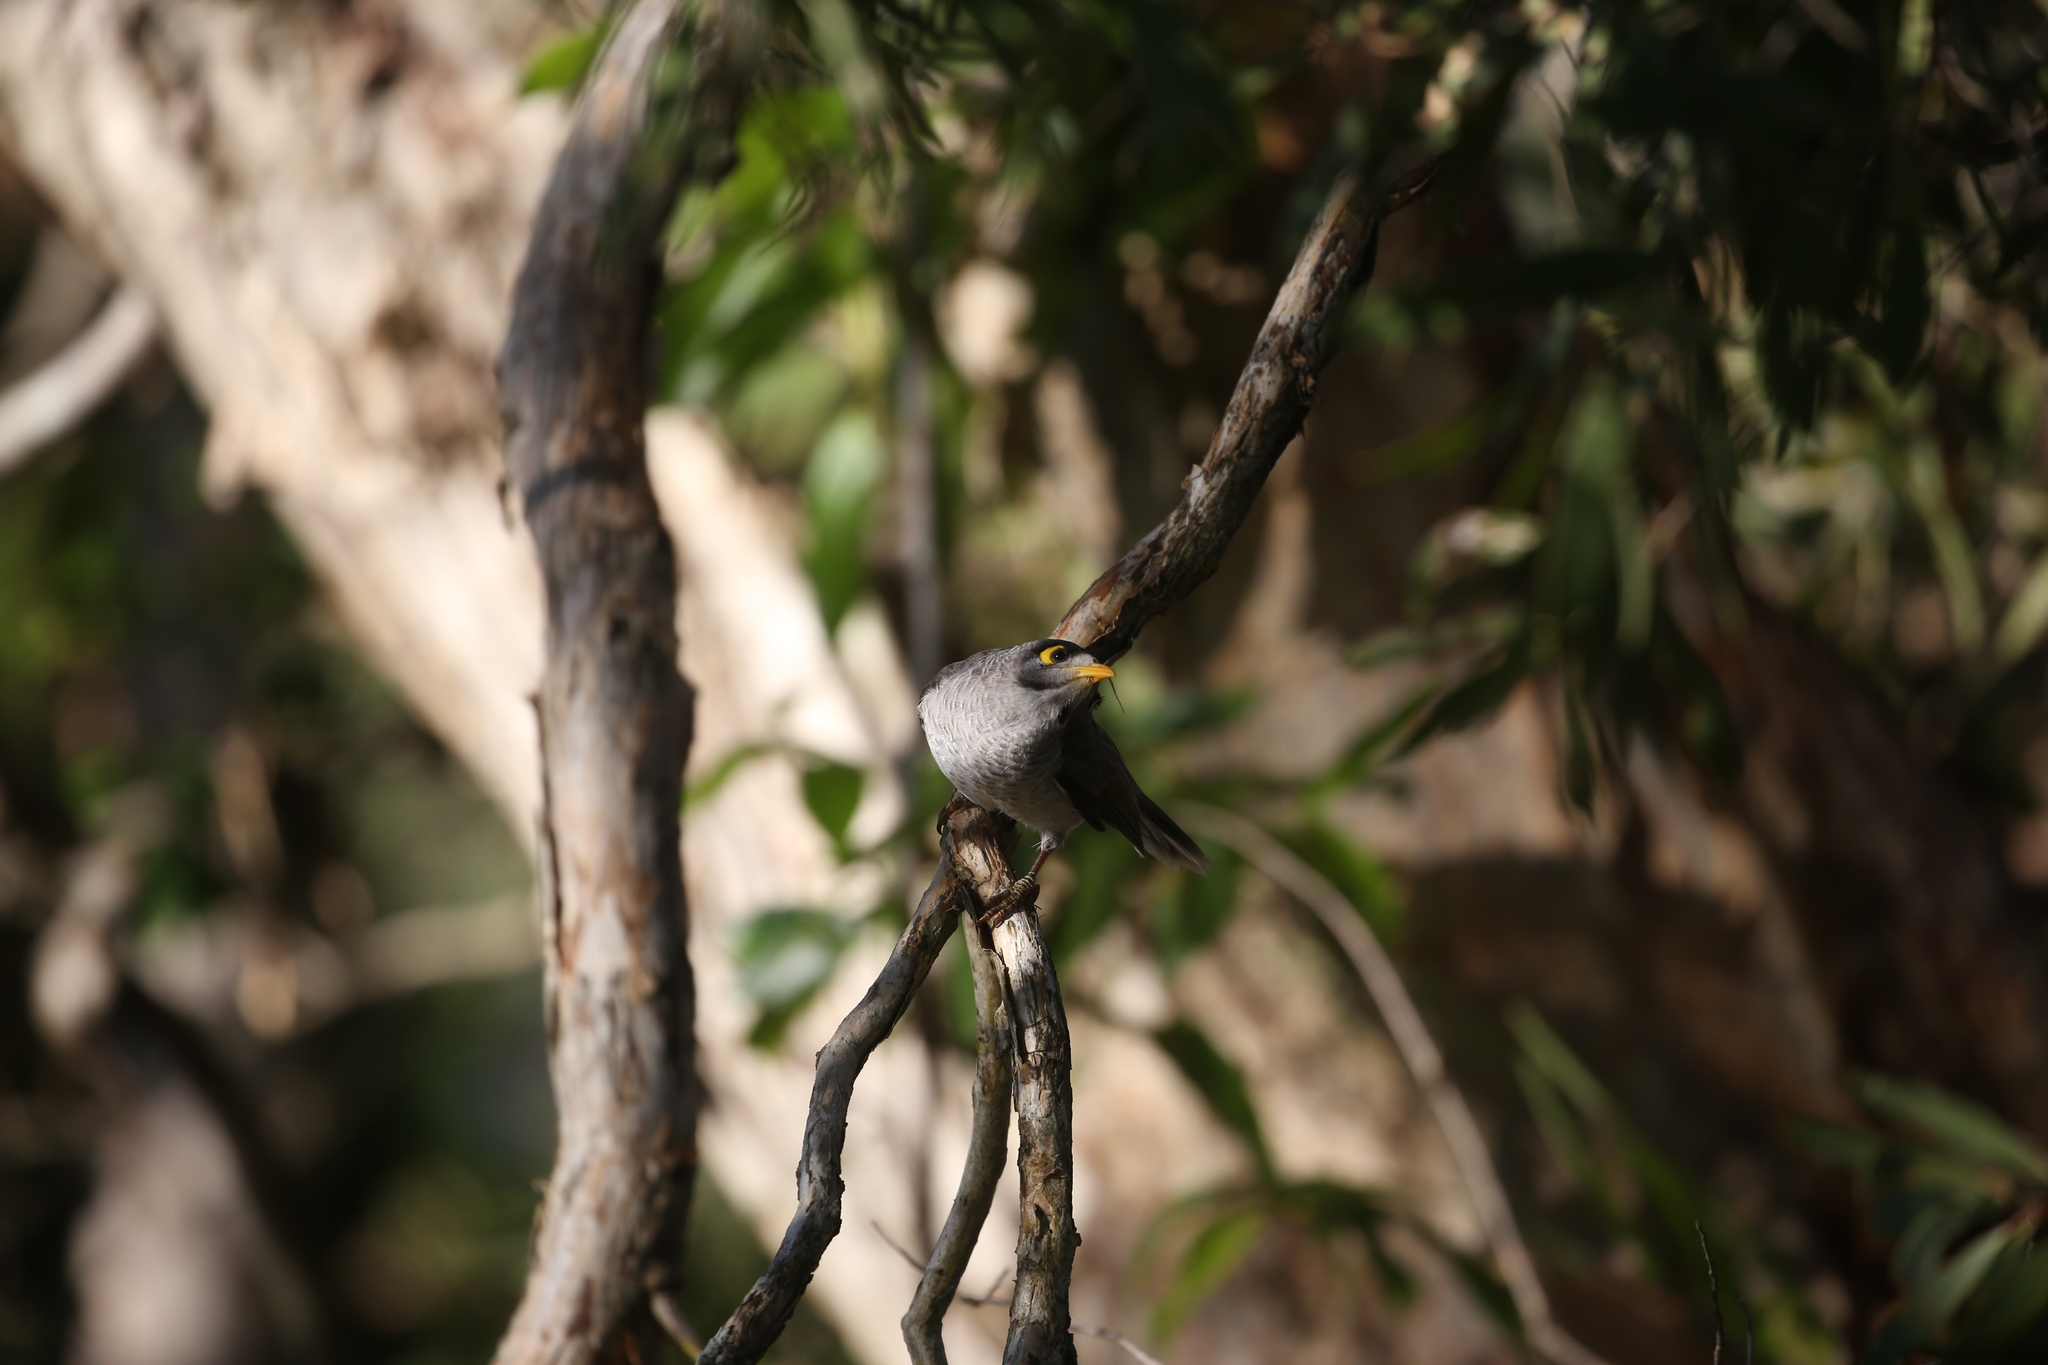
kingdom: Animalia
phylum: Chordata
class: Aves
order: Passeriformes
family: Meliphagidae
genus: Manorina
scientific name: Manorina melanocephala
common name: Noisy miner
